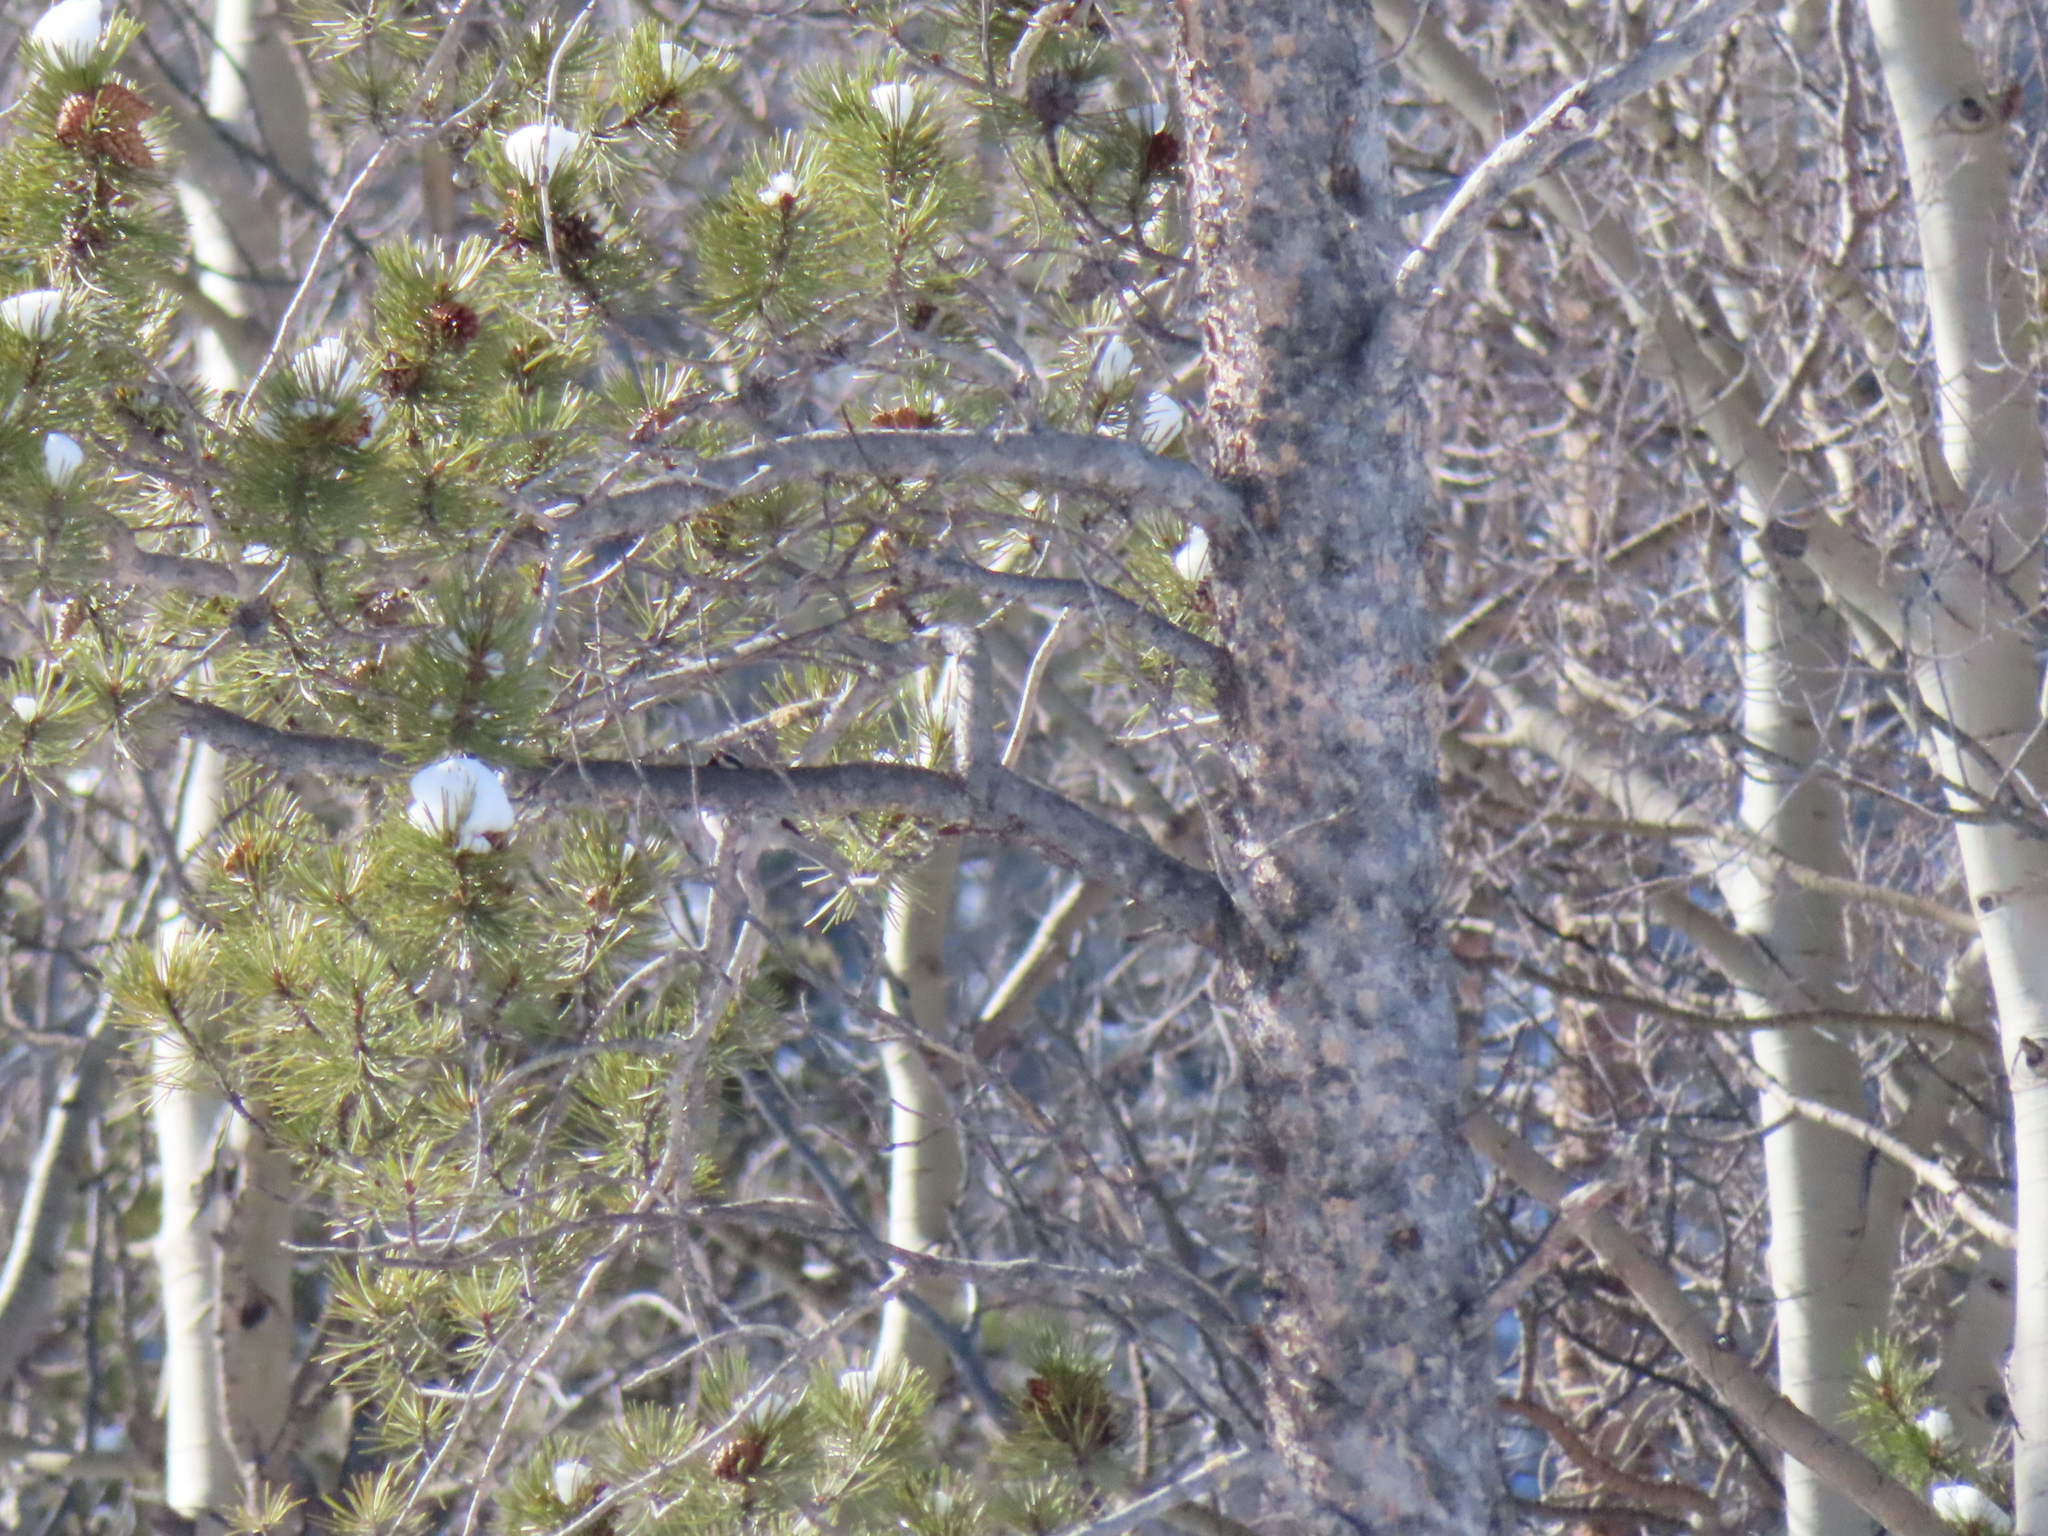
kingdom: Plantae
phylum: Tracheophyta
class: Pinopsida
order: Pinales
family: Pinaceae
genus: Pinus
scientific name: Pinus contorta
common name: Lodgepole pine
